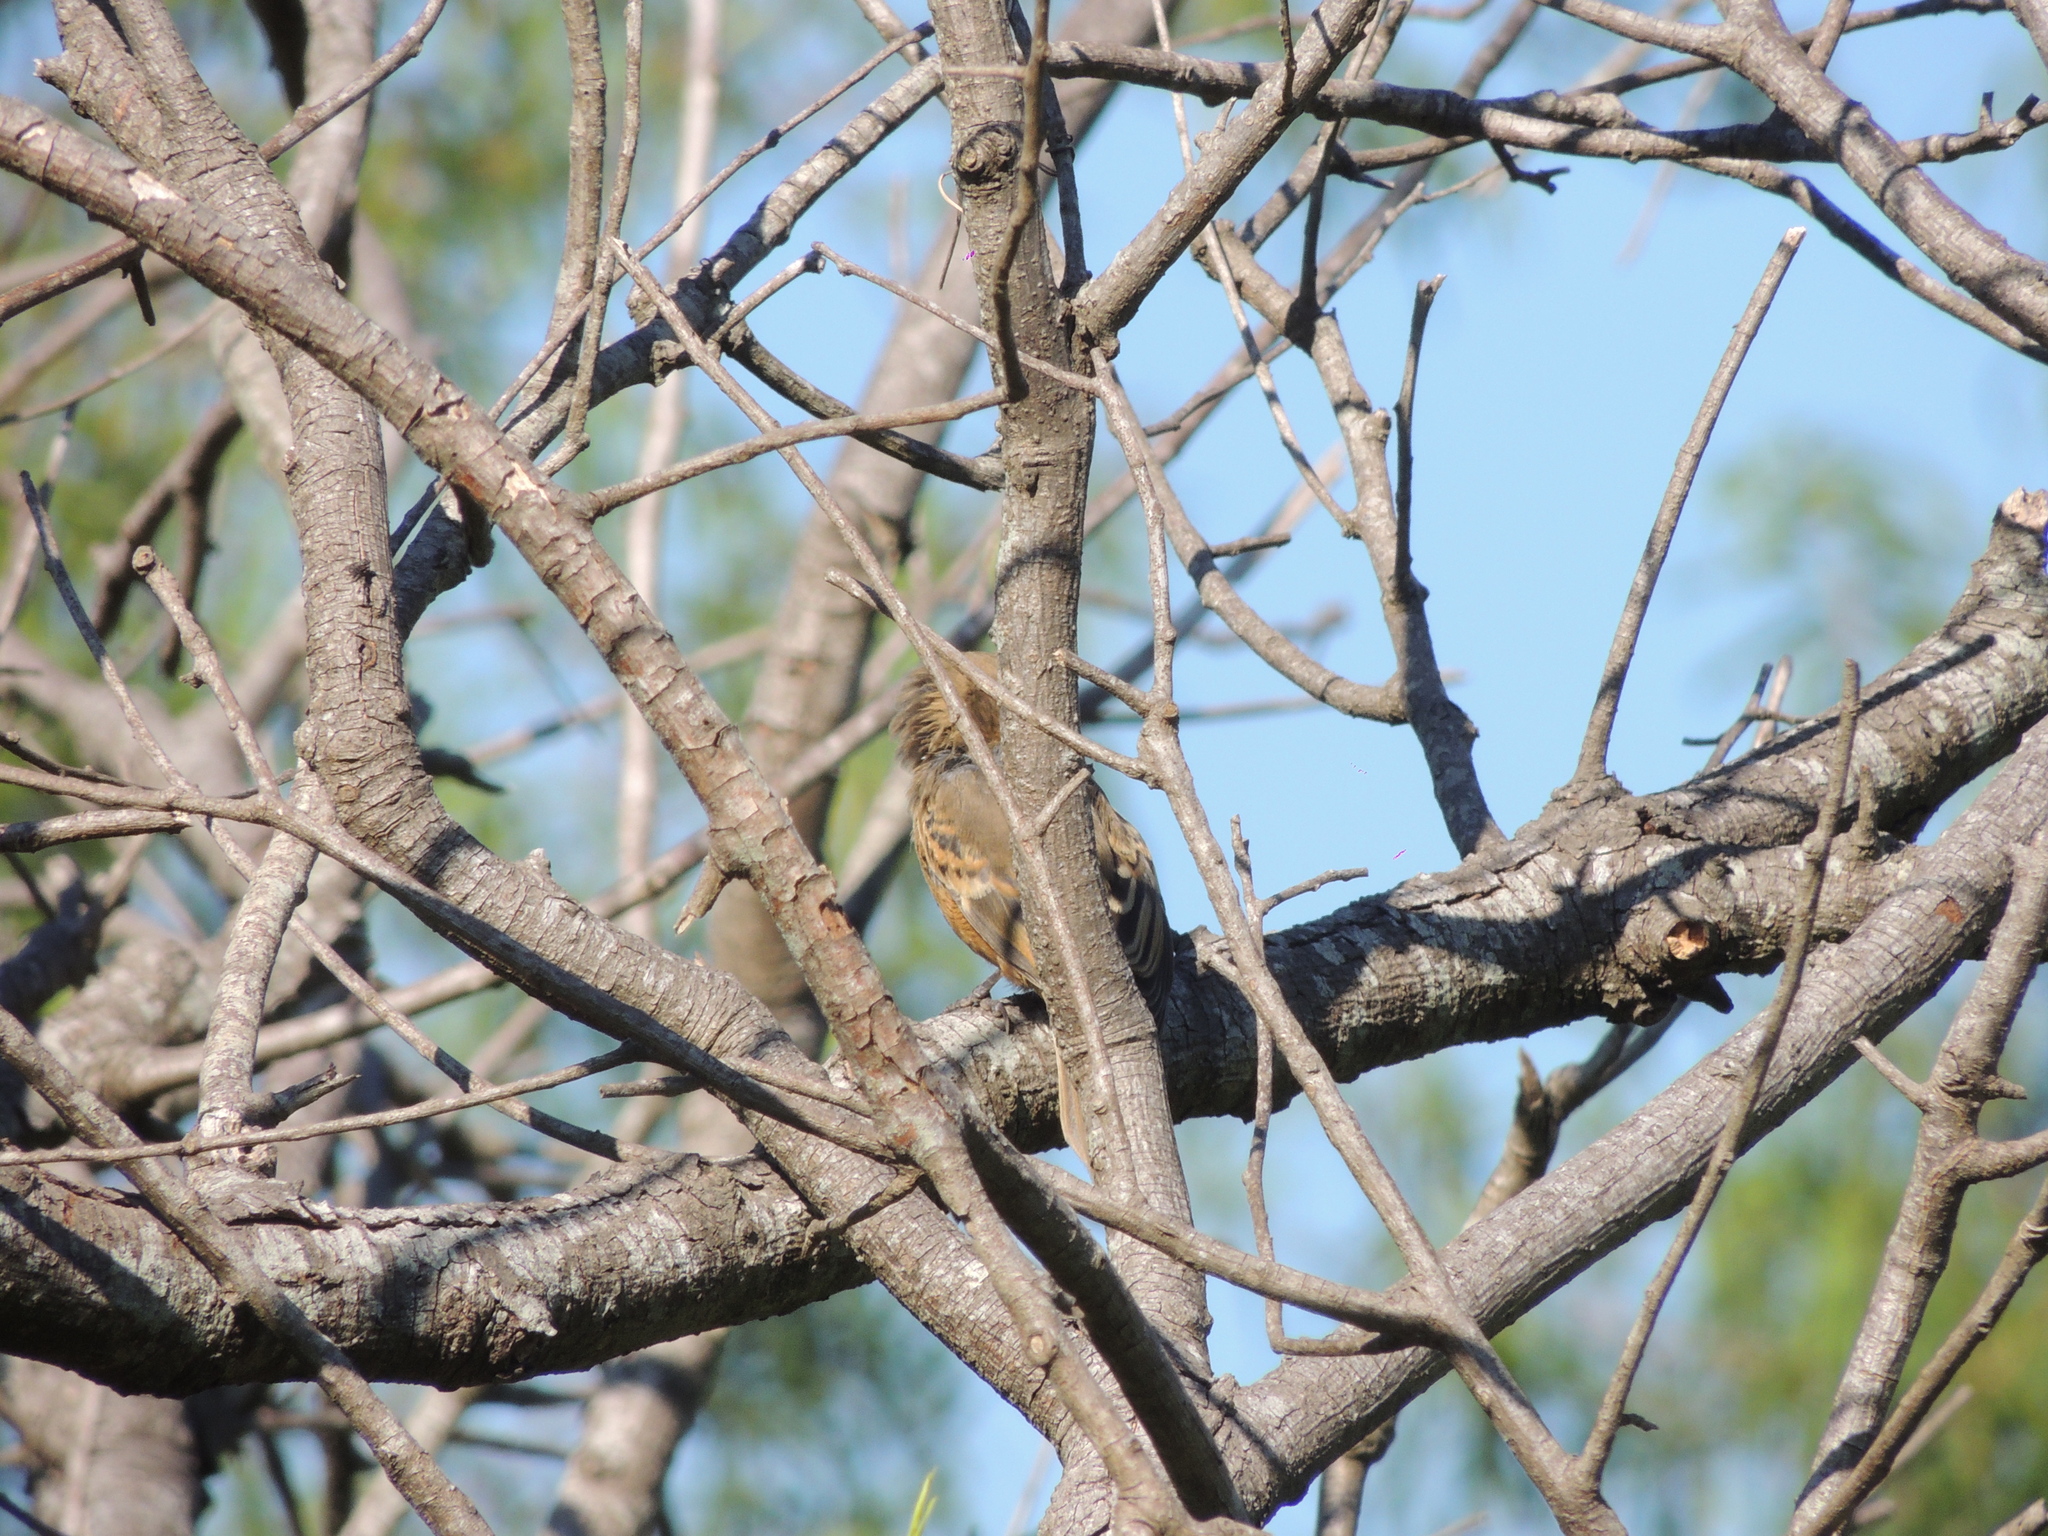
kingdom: Animalia
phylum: Chordata
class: Aves
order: Passeriformes
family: Thraupidae
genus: Sporophila
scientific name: Sporophila collaris
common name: Rusty-collared seedeater
